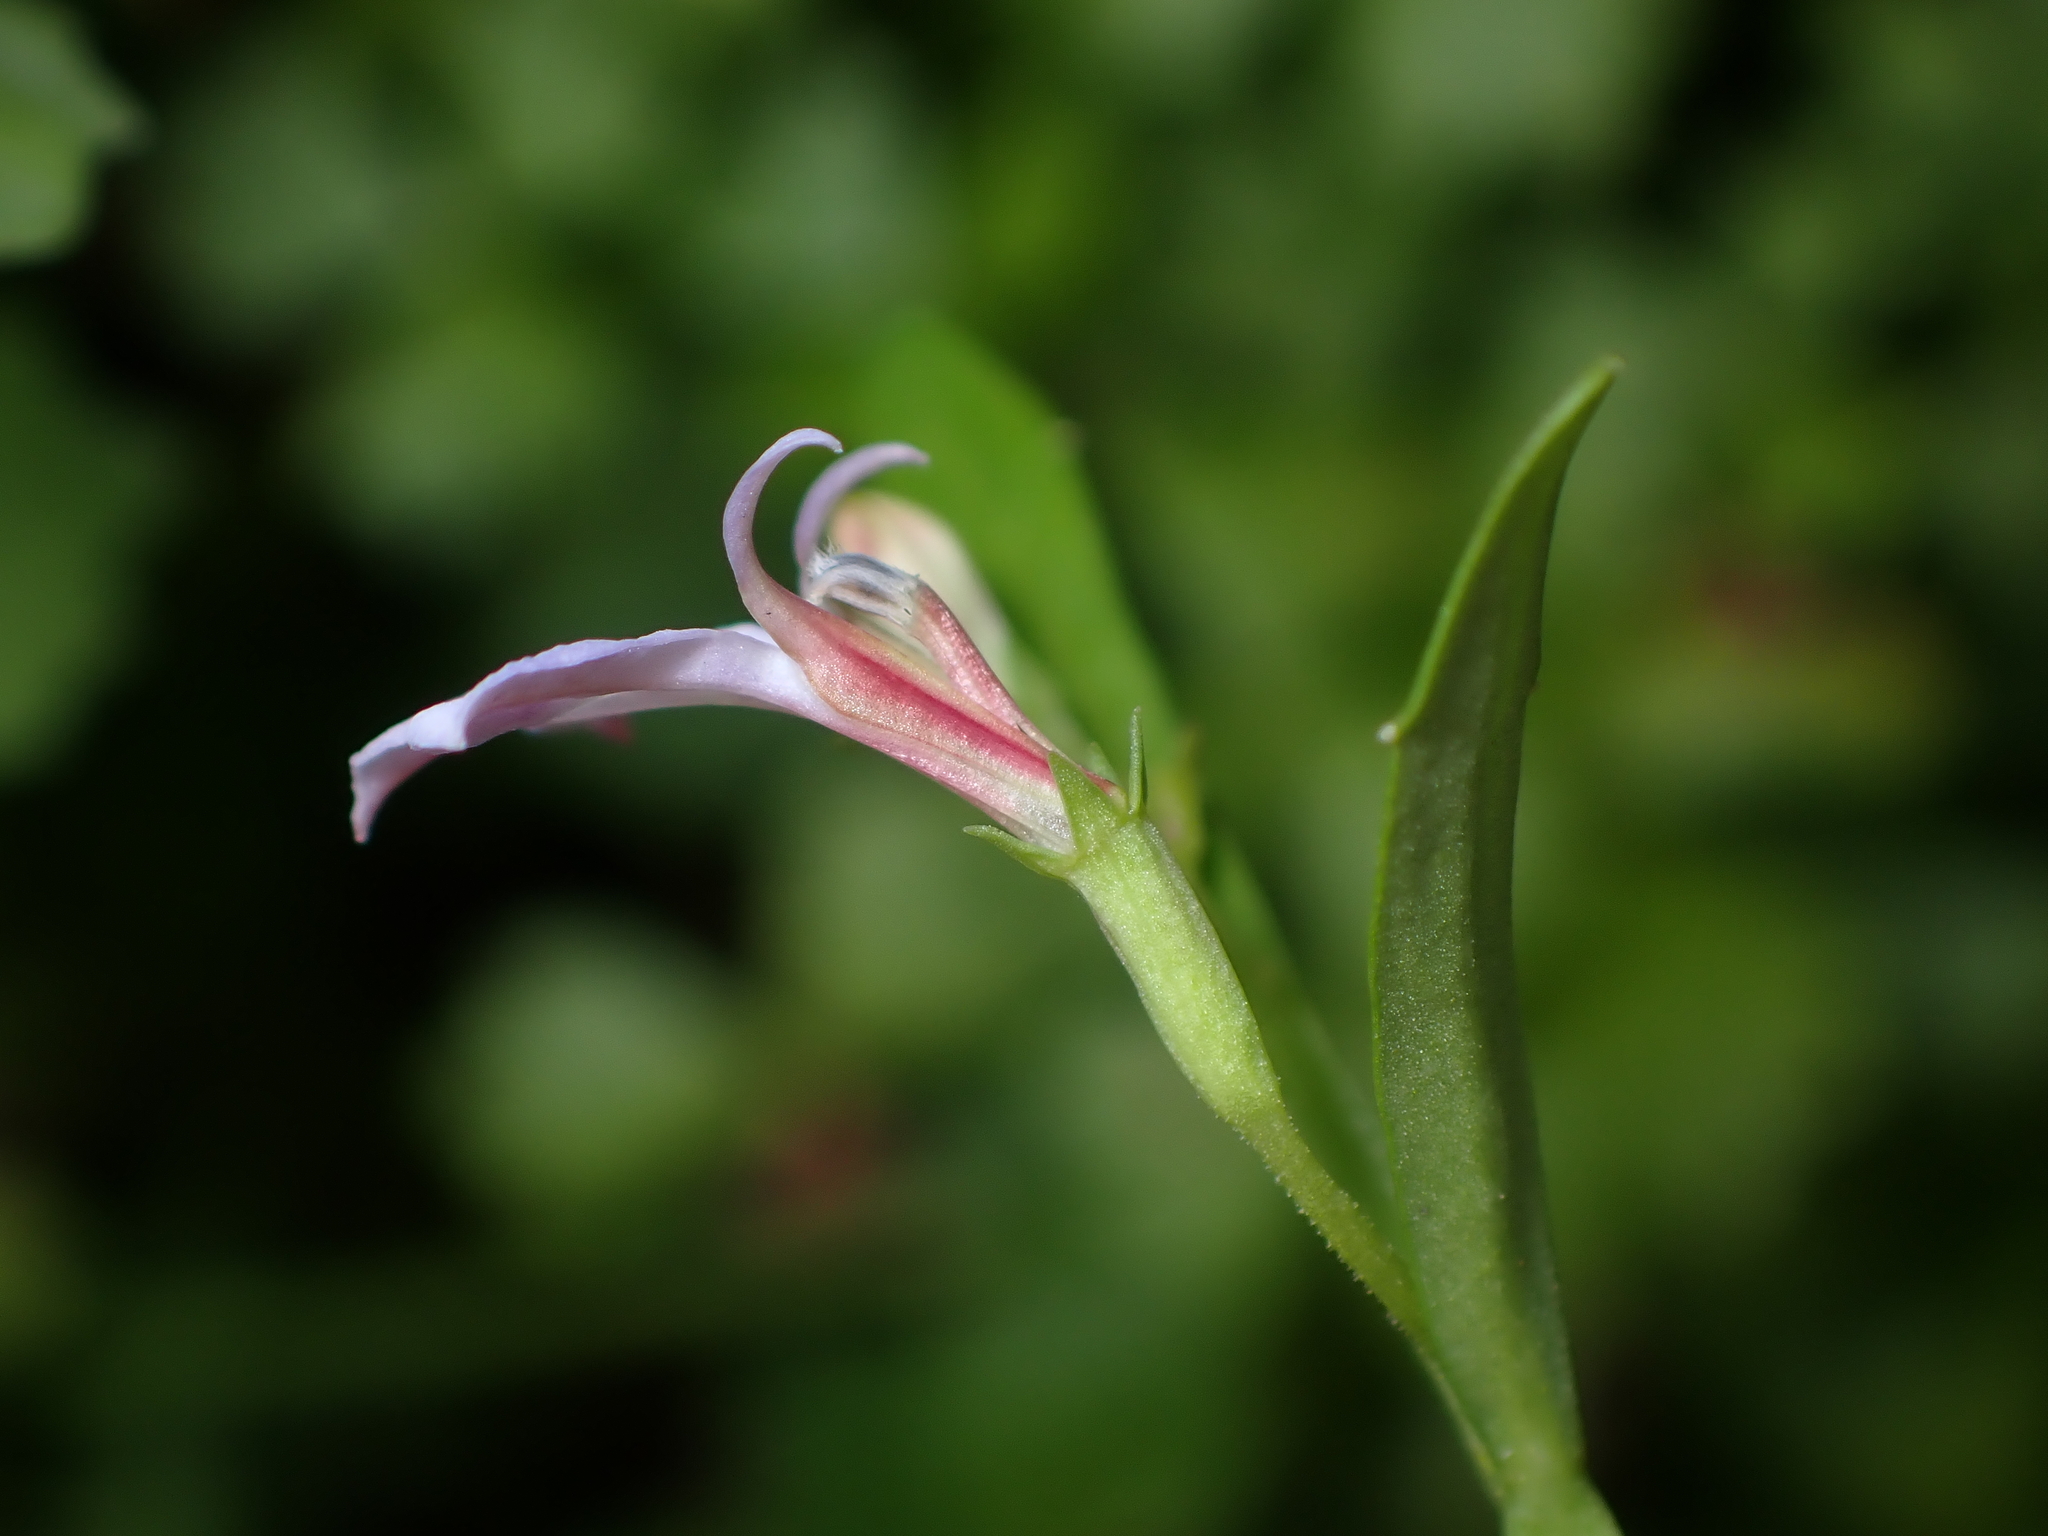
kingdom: Plantae
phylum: Tracheophyta
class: Magnoliopsida
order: Asterales
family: Campanulaceae
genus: Lobelia
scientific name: Lobelia anceps
